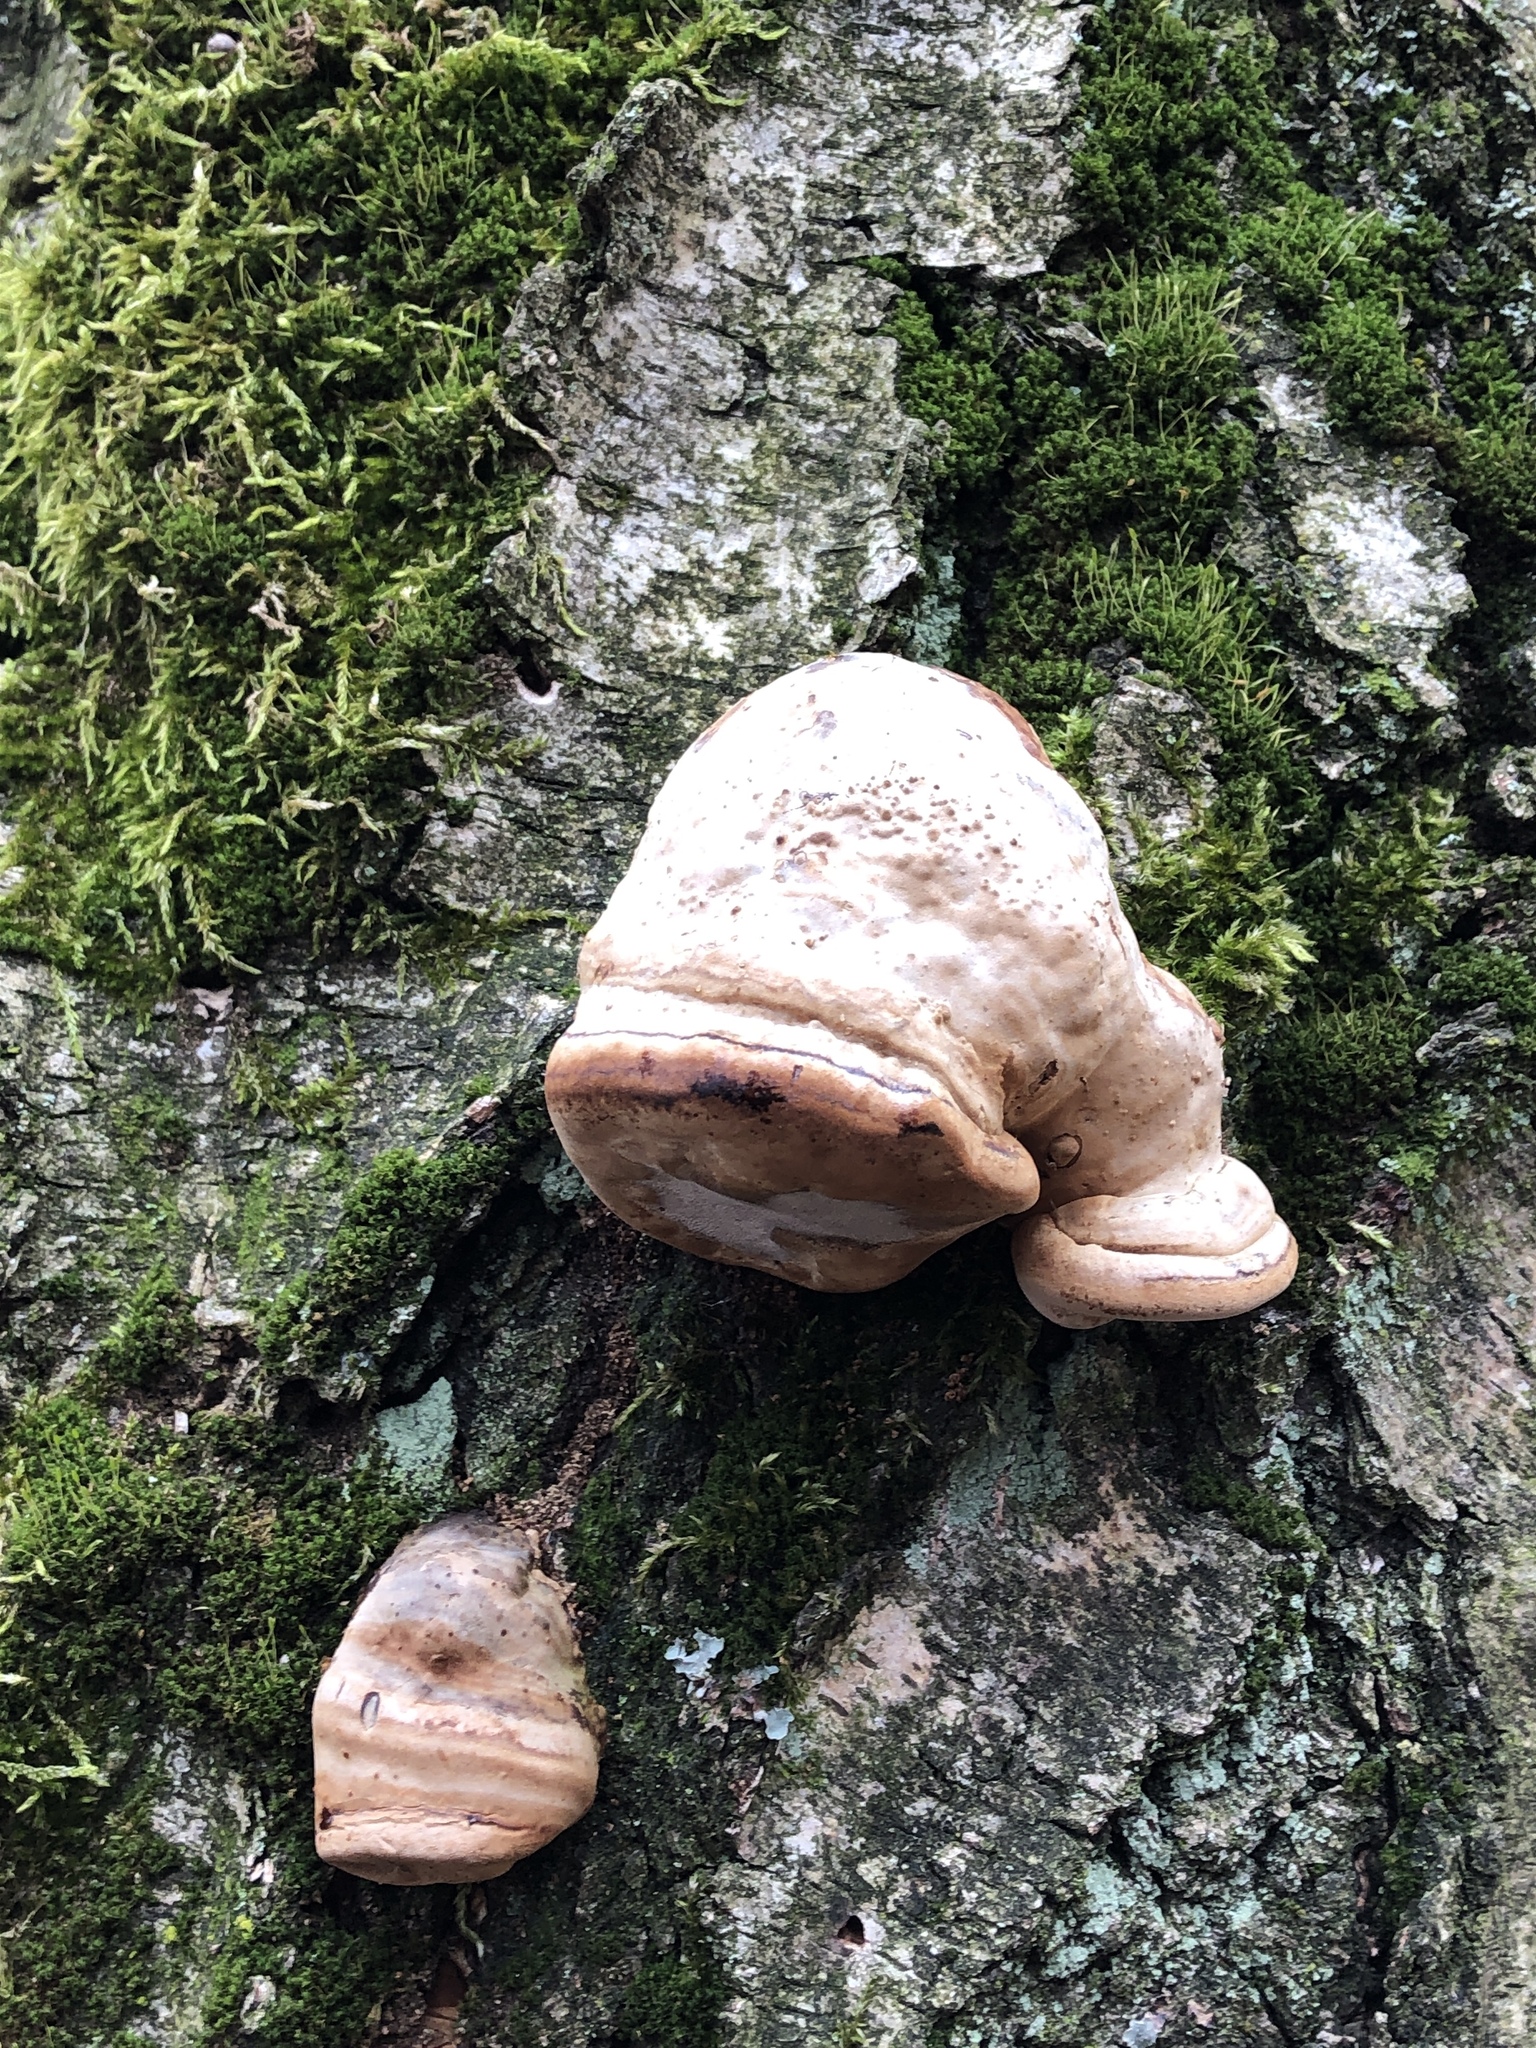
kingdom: Fungi
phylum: Basidiomycota
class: Agaricomycetes
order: Polyporales
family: Polyporaceae
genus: Fomes
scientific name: Fomes fomentarius
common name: Hoof fungus
